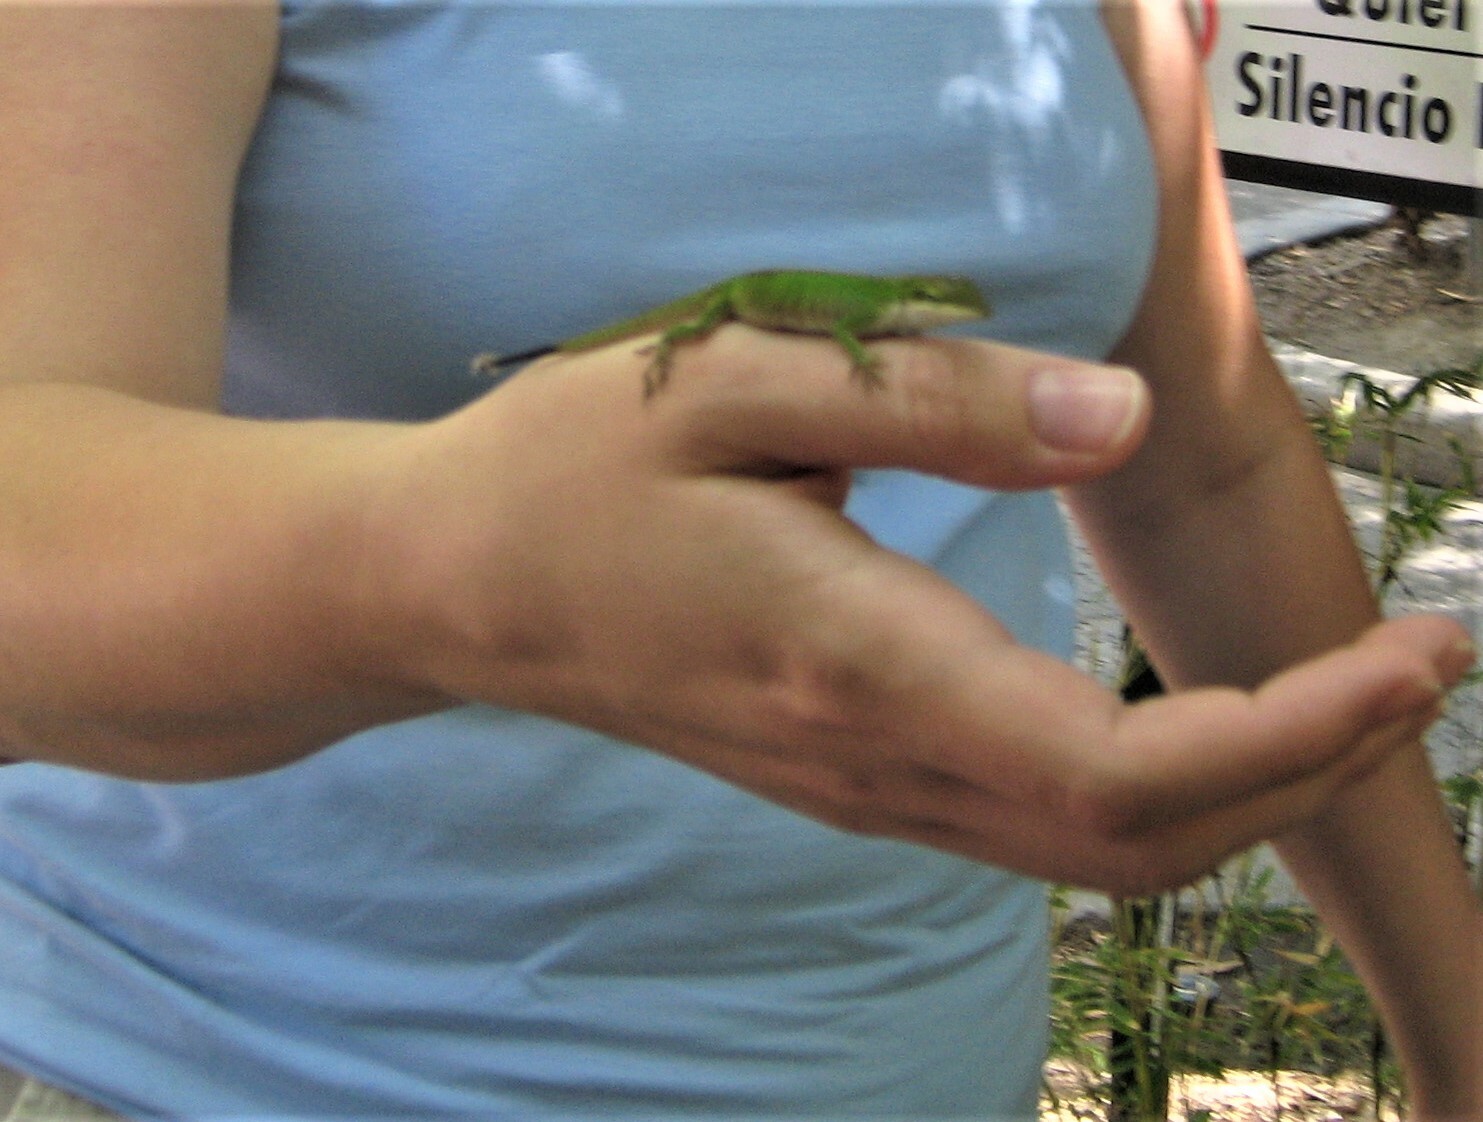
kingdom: Animalia
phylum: Chordata
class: Squamata
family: Dactyloidae
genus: Anolis
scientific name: Anolis carolinensis
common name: Green anole
